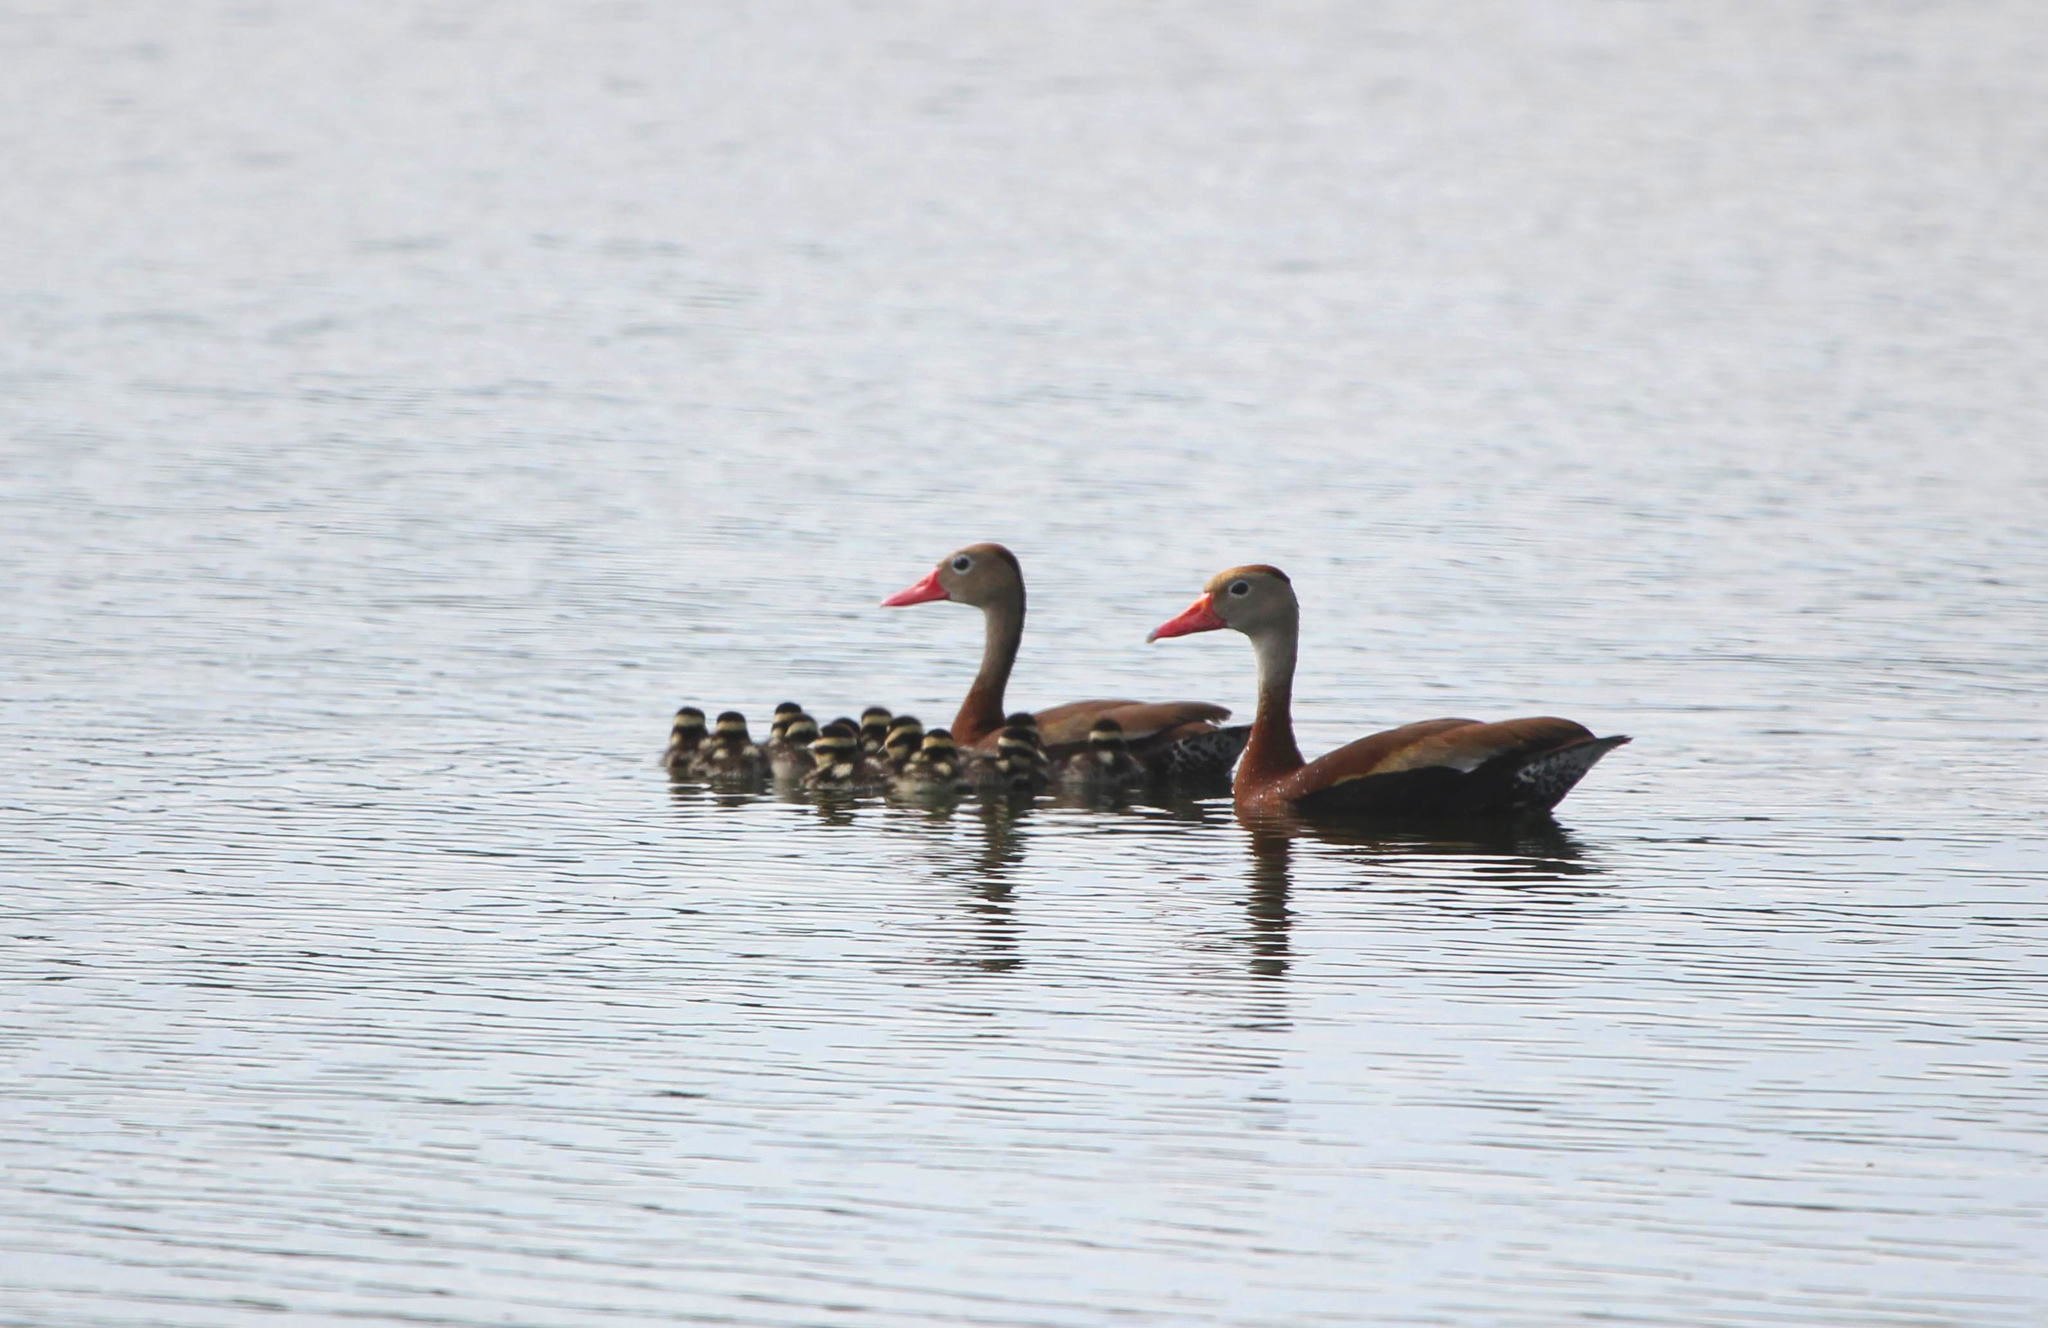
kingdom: Animalia
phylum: Chordata
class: Aves
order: Anseriformes
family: Anatidae
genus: Dendrocygna
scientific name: Dendrocygna autumnalis
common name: Black-bellied whistling duck
